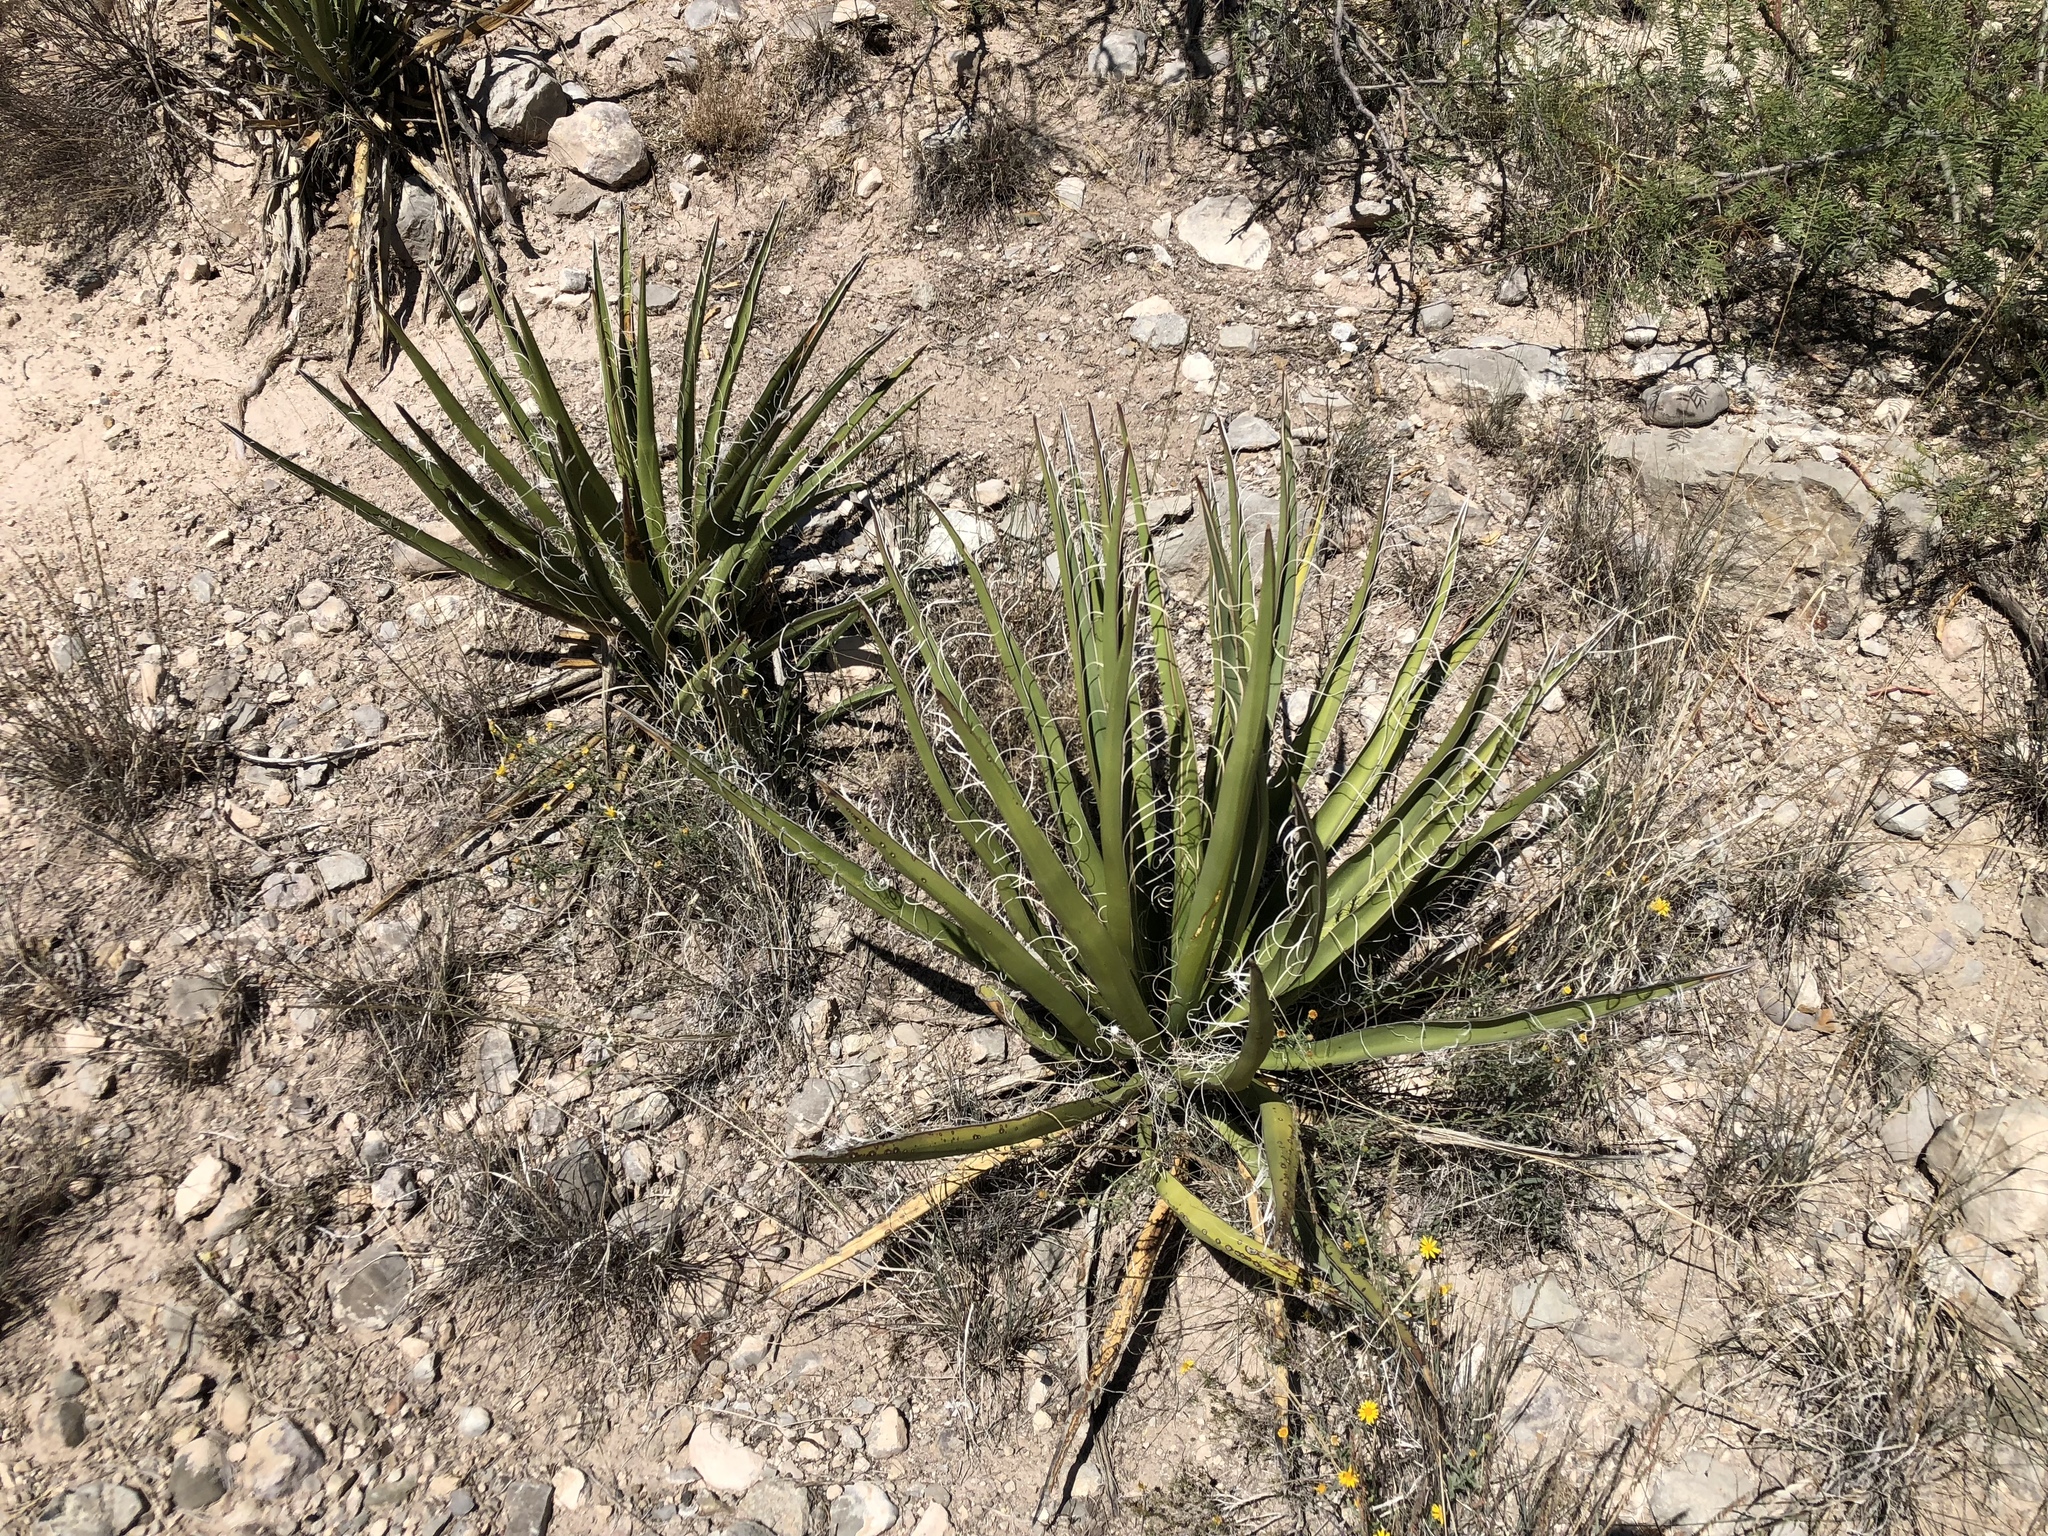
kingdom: Plantae
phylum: Tracheophyta
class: Liliopsida
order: Asparagales
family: Asparagaceae
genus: Yucca
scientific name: Yucca baccata
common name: Banana yucca
